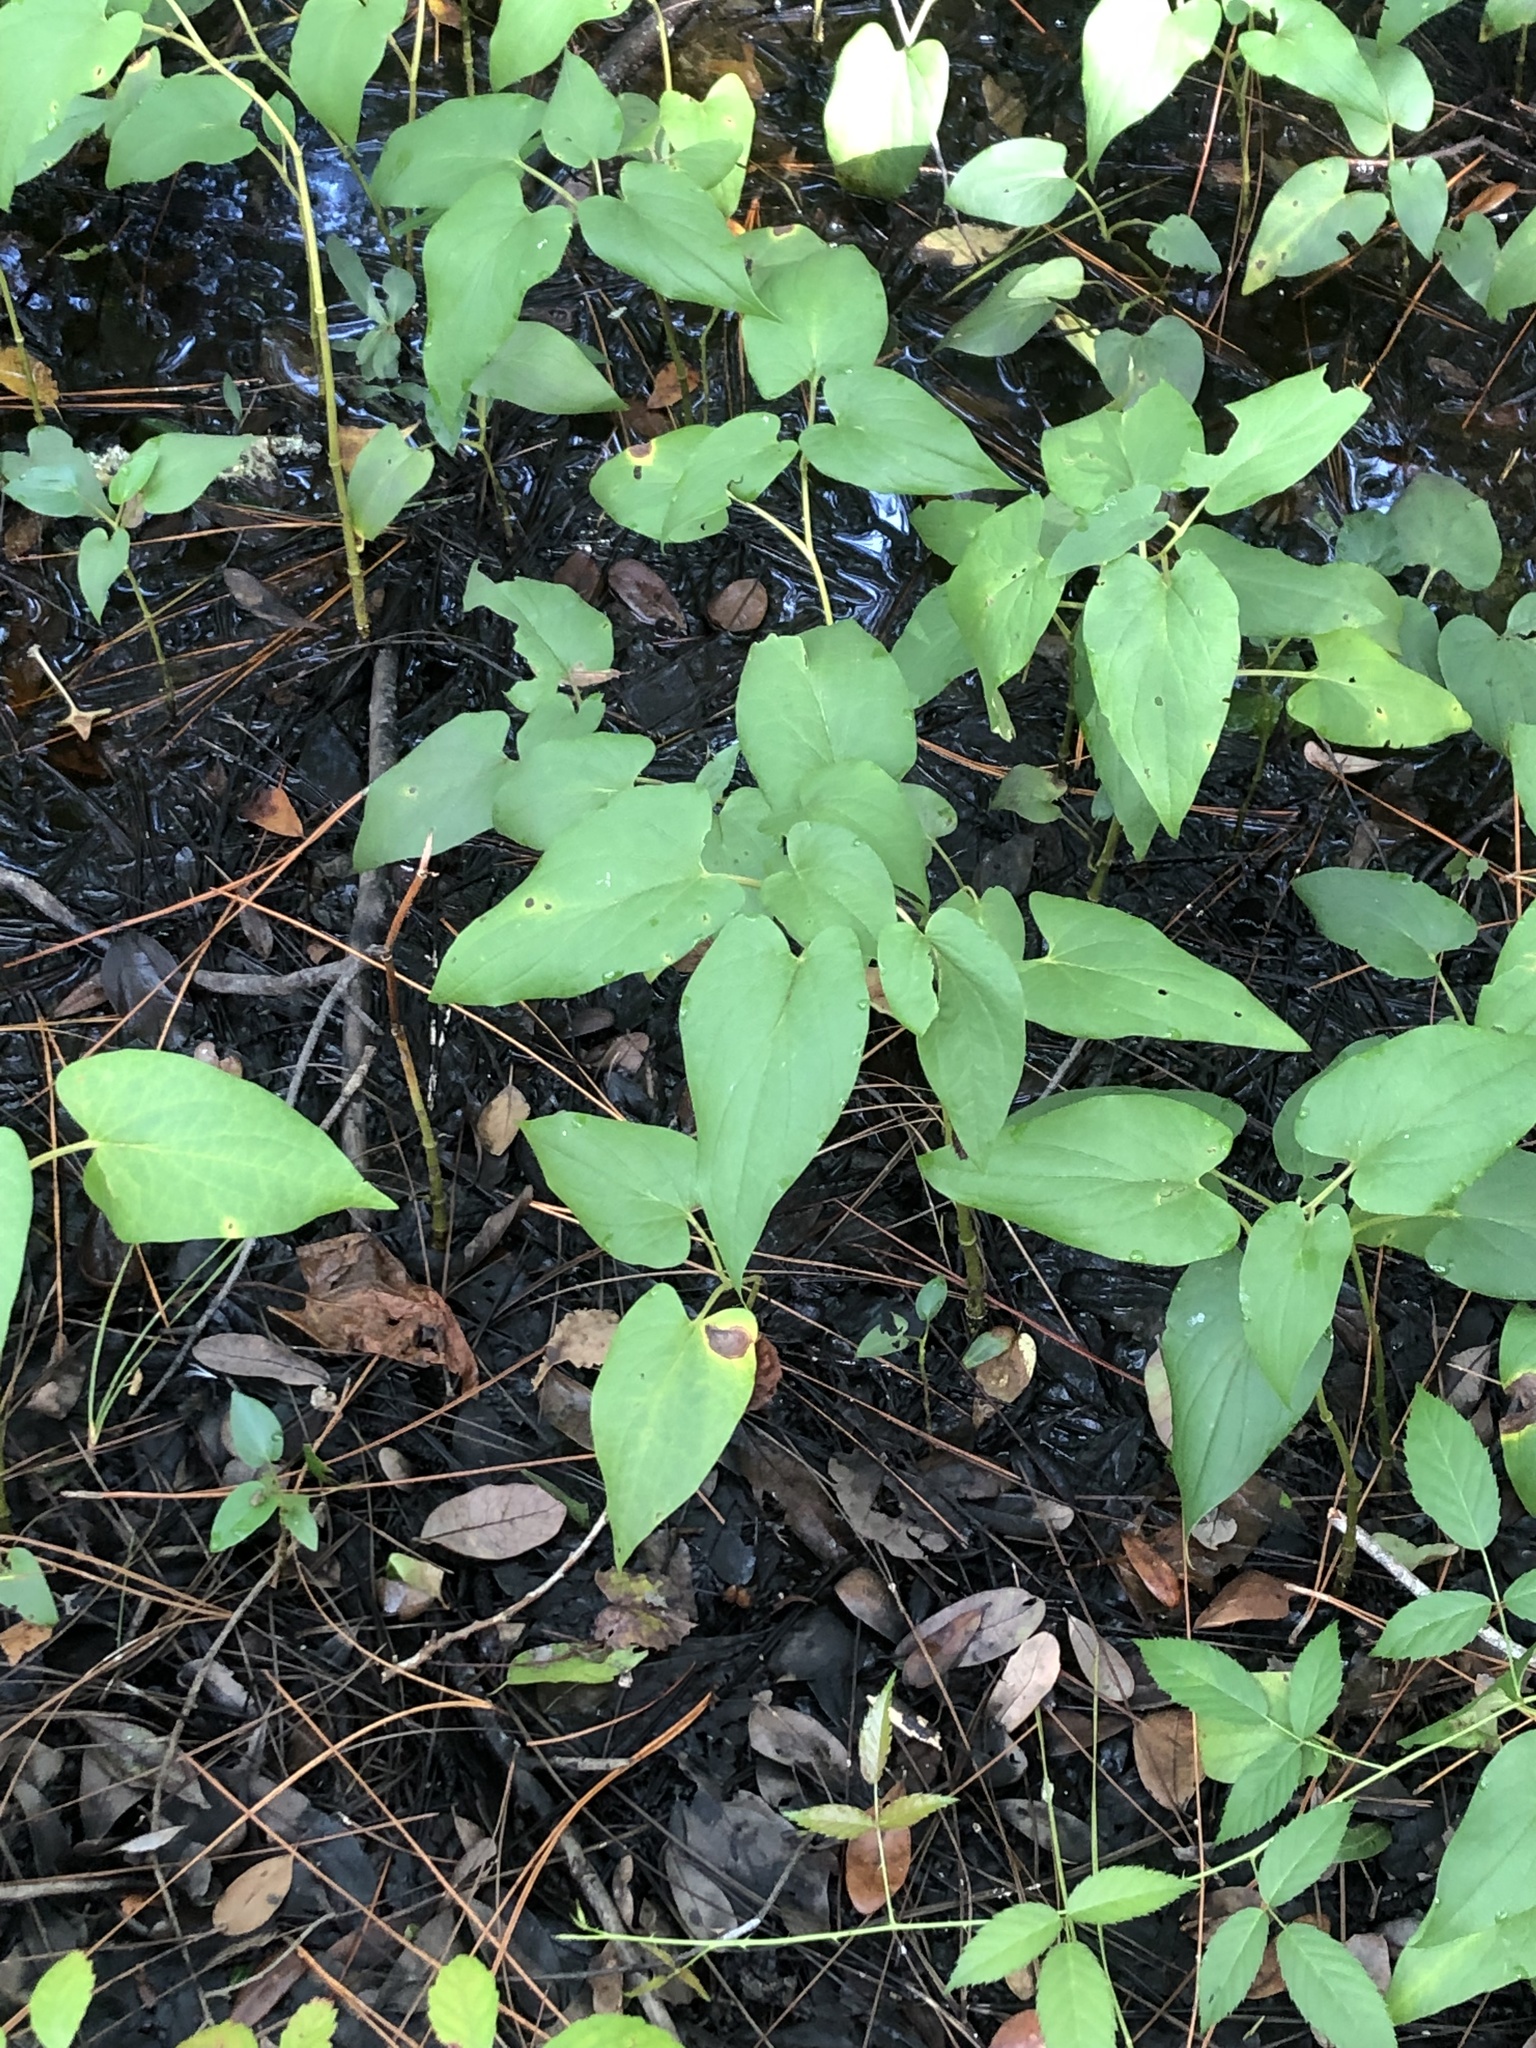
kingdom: Plantae
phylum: Tracheophyta
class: Magnoliopsida
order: Piperales
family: Saururaceae
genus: Saururus
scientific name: Saururus cernuus
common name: Lizard's-tail
